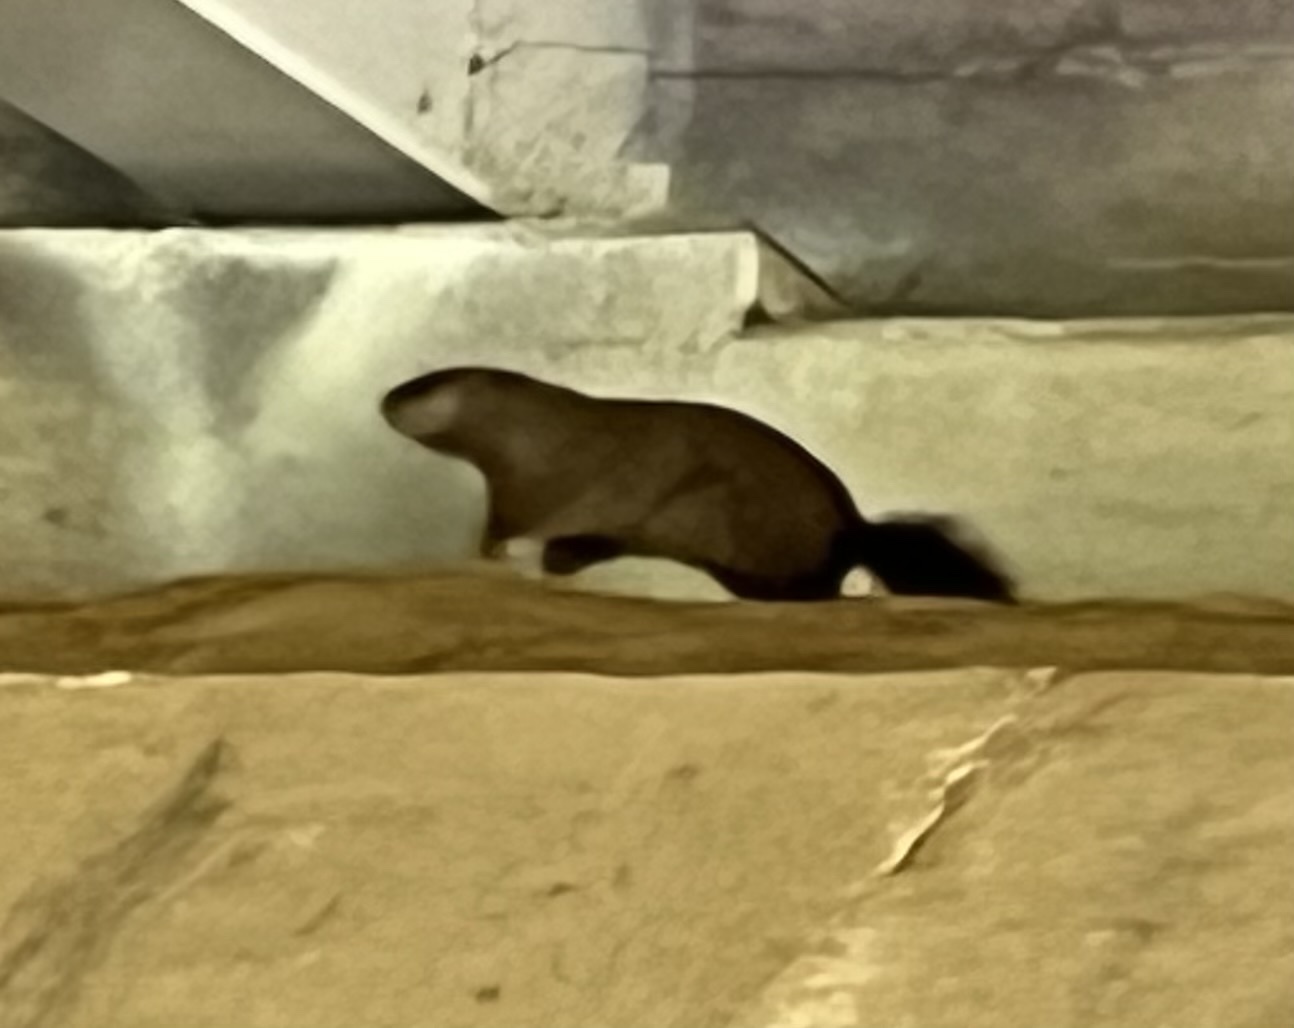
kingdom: Animalia
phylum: Chordata
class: Mammalia
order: Rodentia
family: Sciuridae
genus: Marmota
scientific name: Marmota monax
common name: Groundhog
